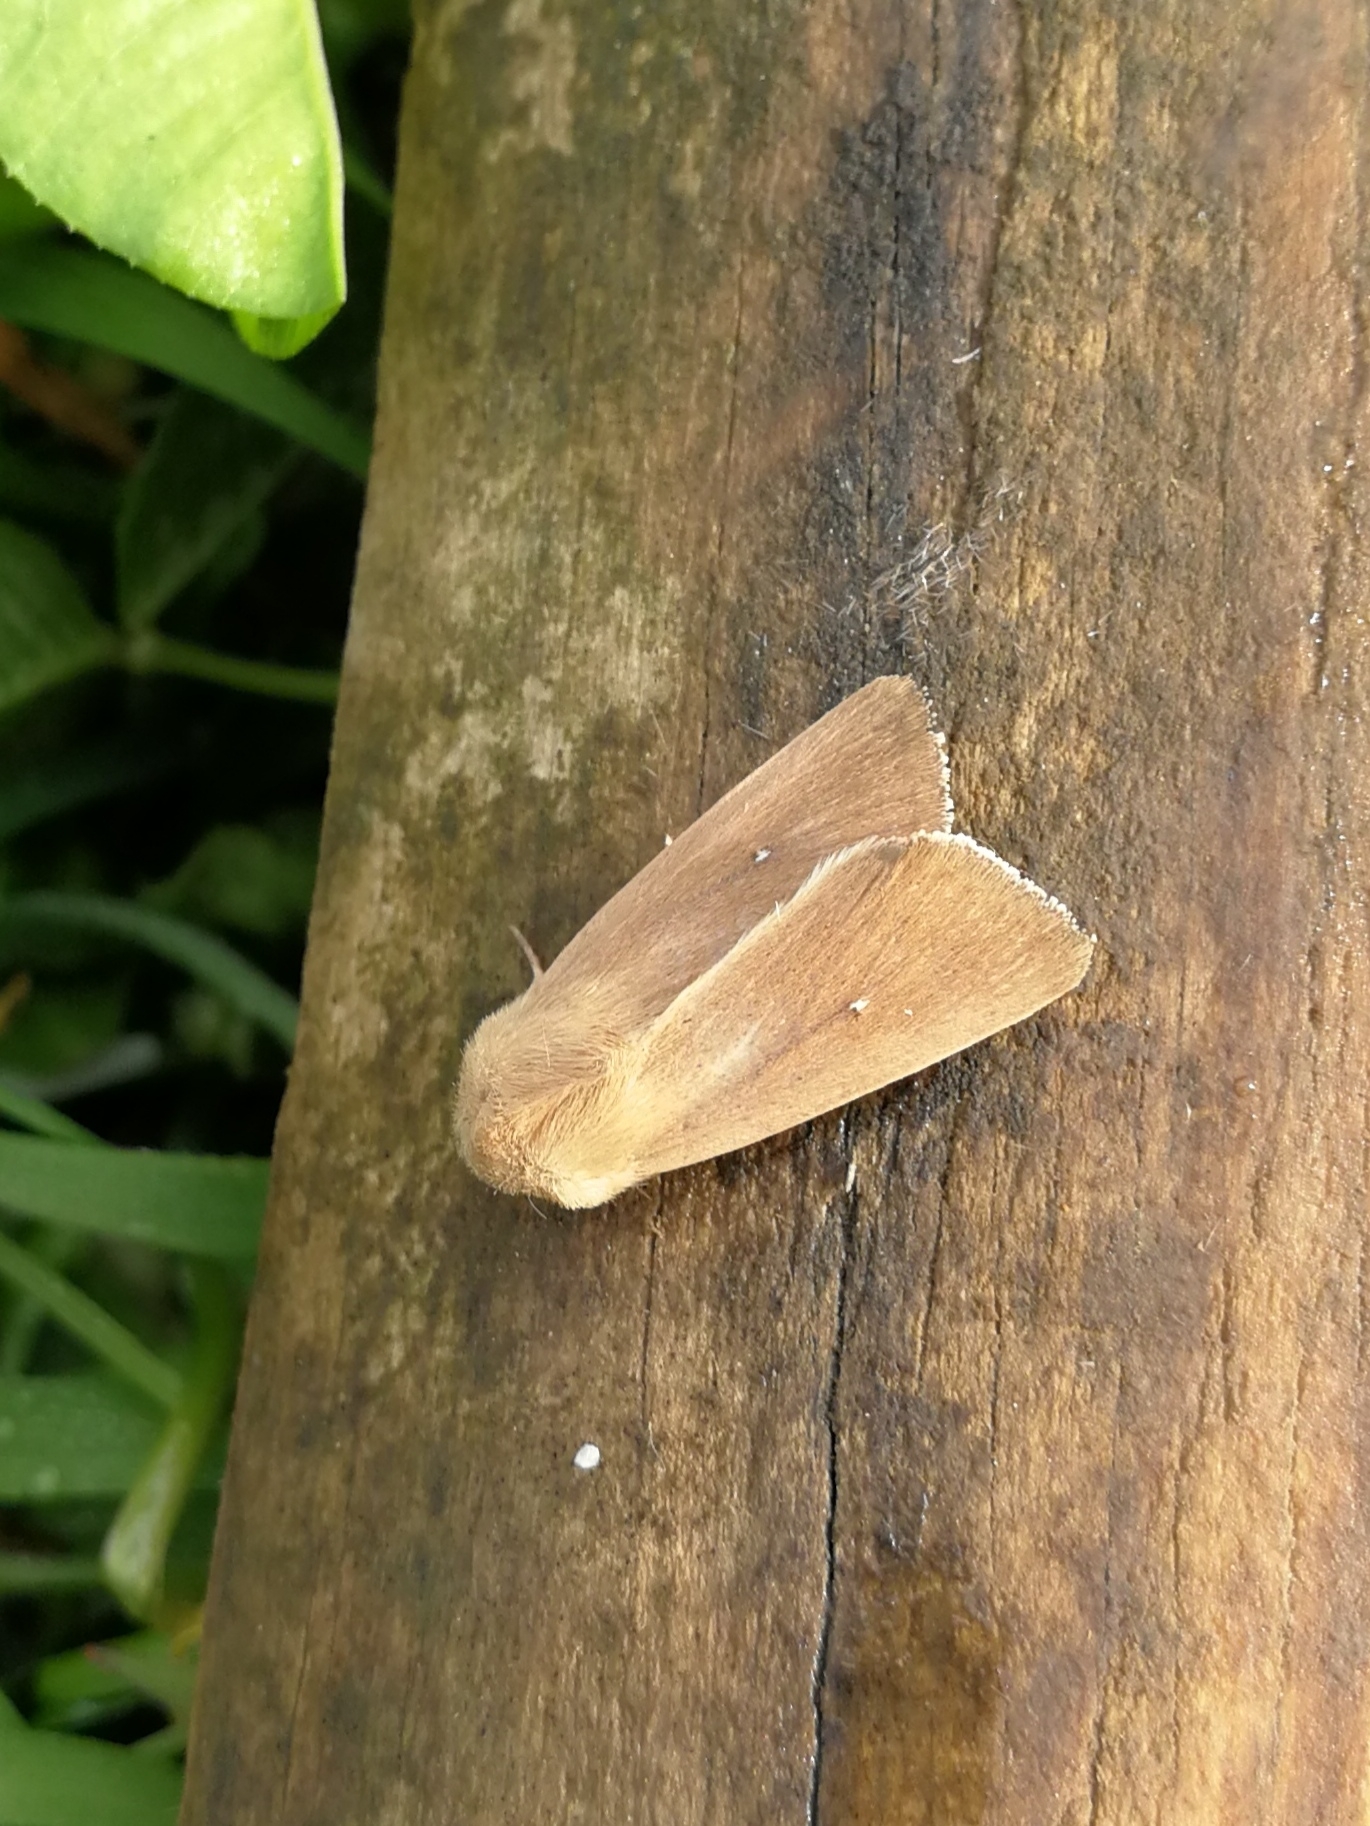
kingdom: Animalia
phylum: Arthropoda
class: Insecta
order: Lepidoptera
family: Noctuidae
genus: Mythimna
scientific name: Mythimna sicula
